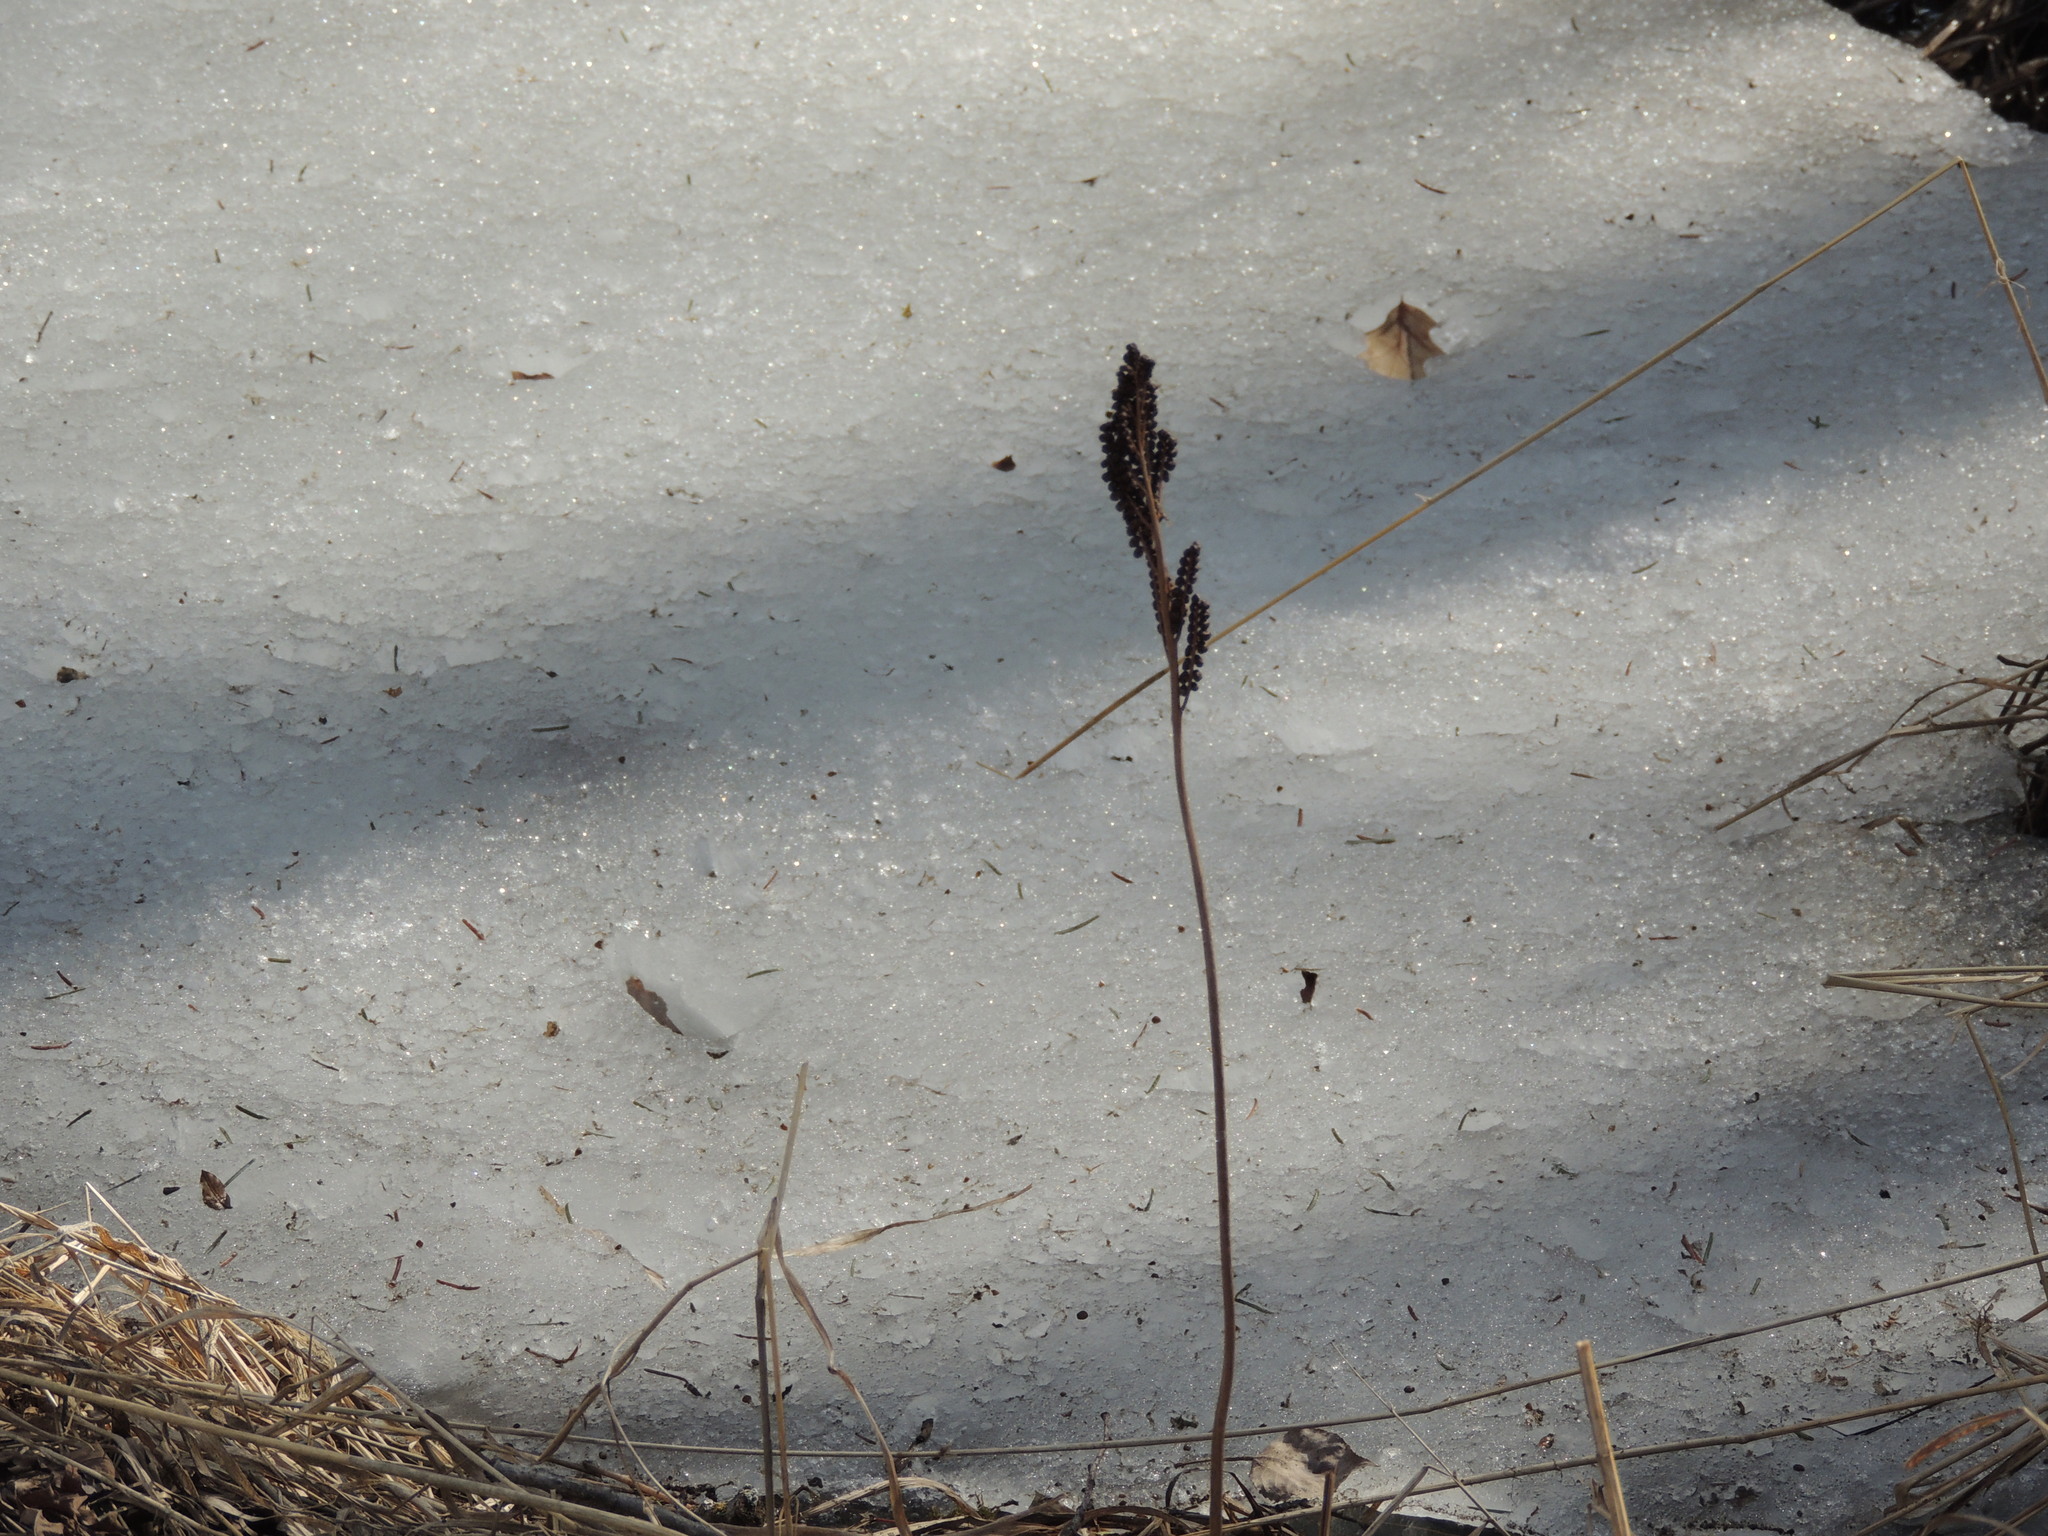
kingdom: Plantae
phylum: Tracheophyta
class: Polypodiopsida
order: Polypodiales
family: Onocleaceae
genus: Onoclea
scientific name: Onoclea sensibilis
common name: Sensitive fern
